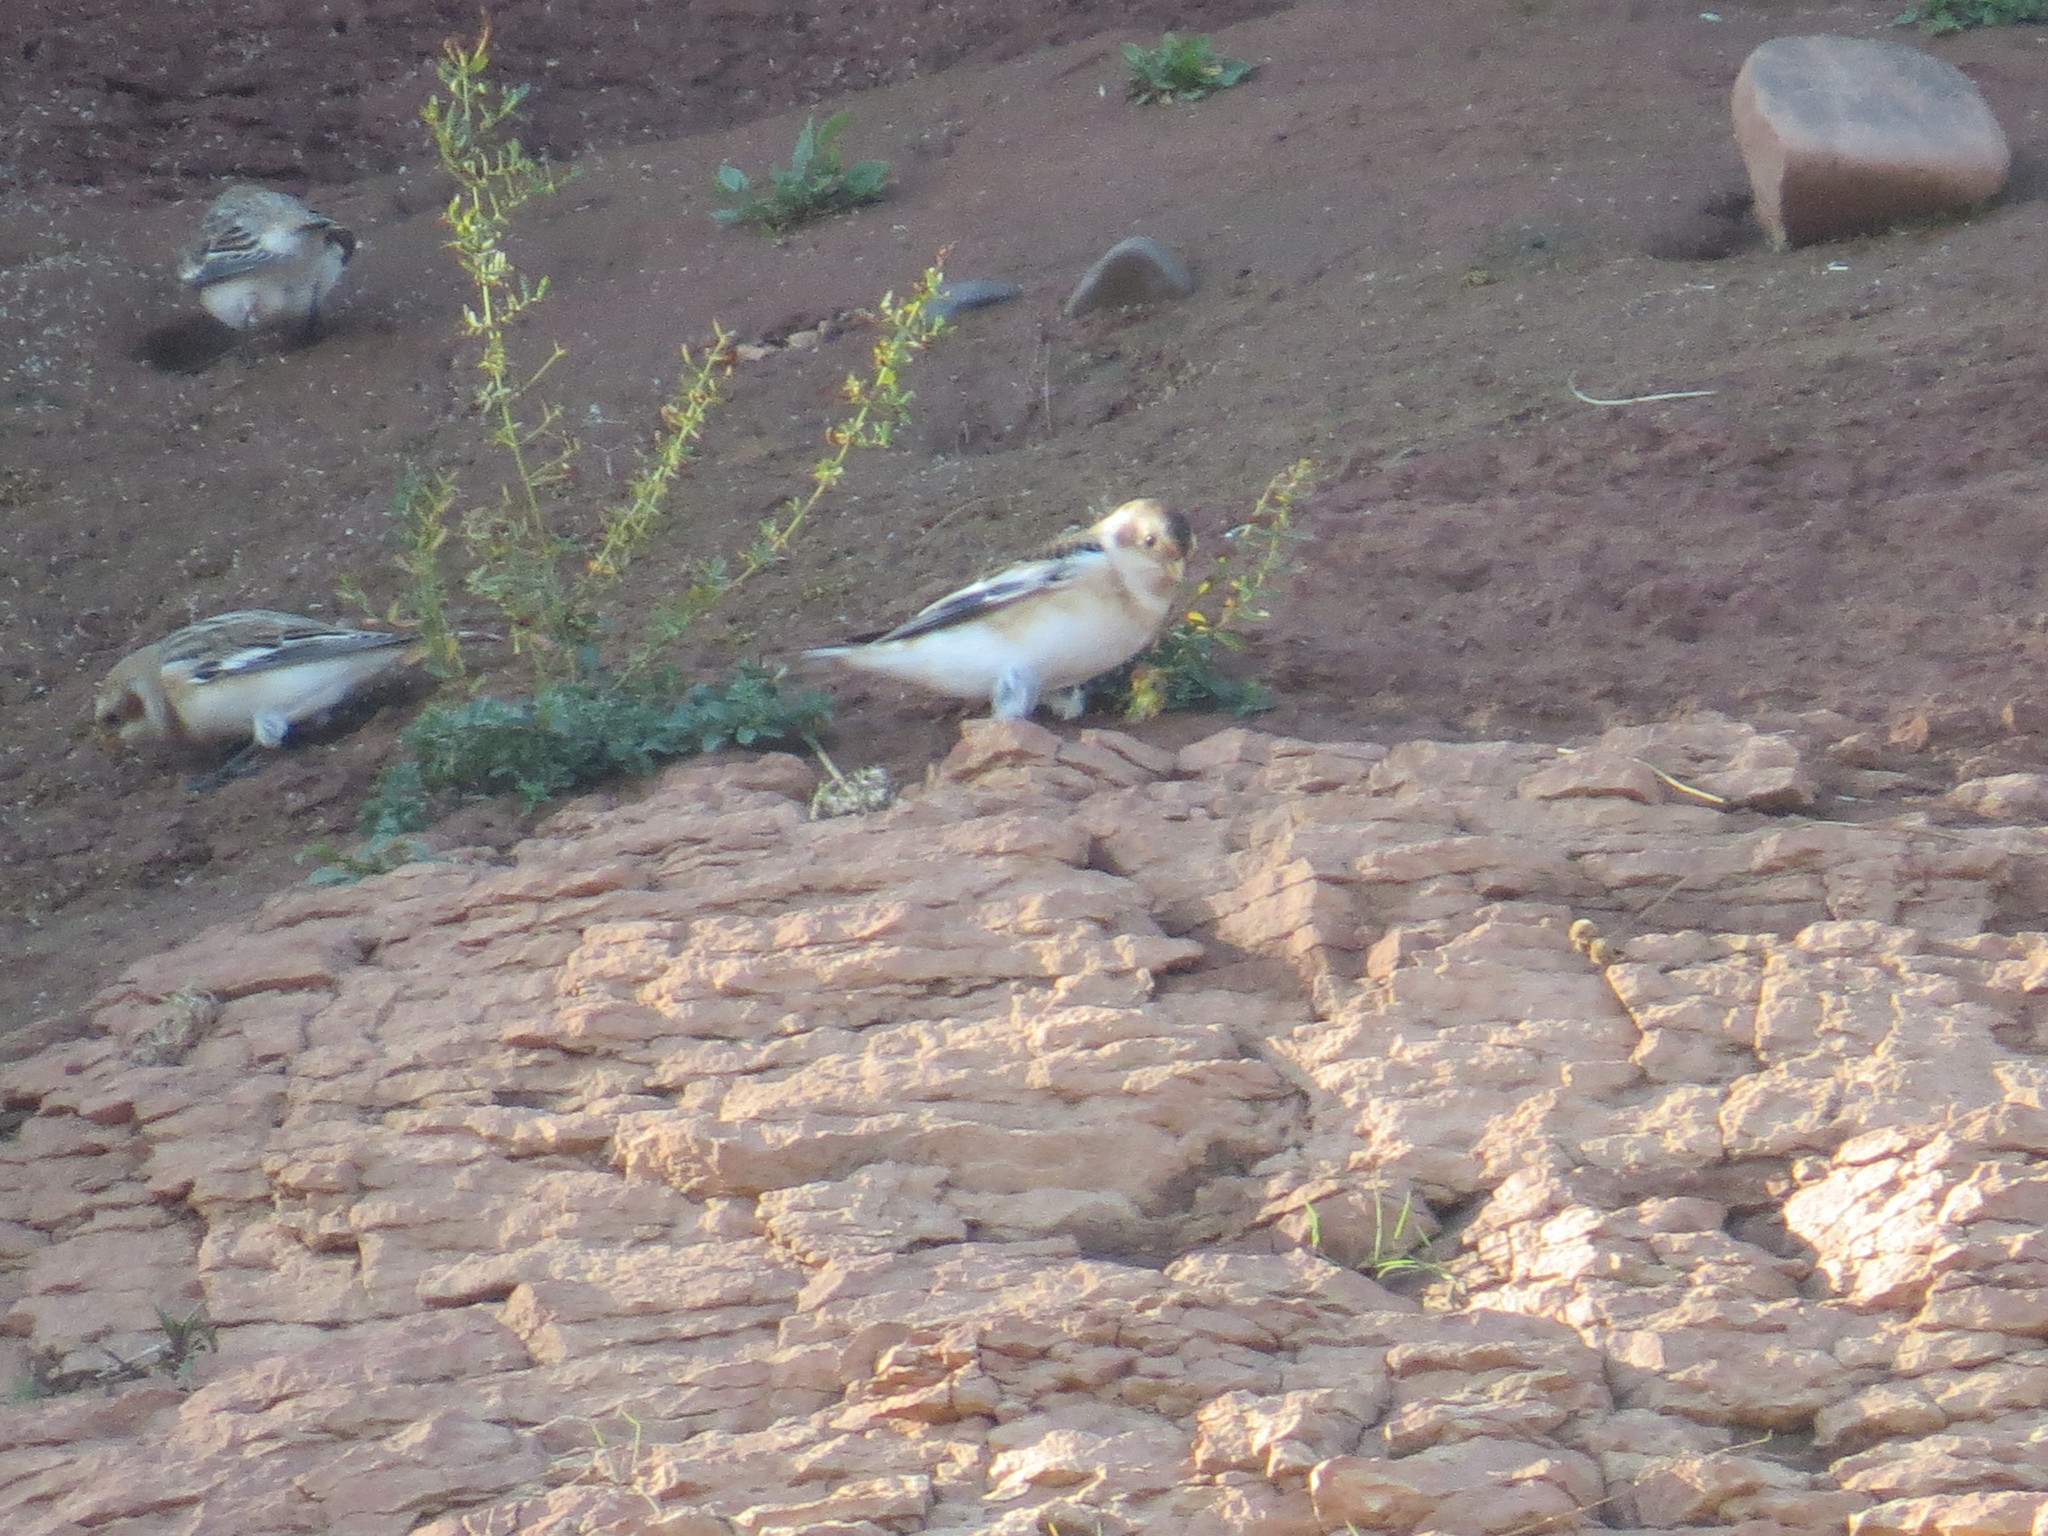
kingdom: Animalia
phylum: Chordata
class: Aves
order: Passeriformes
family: Calcariidae
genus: Plectrophenax
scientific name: Plectrophenax nivalis
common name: Snow bunting
